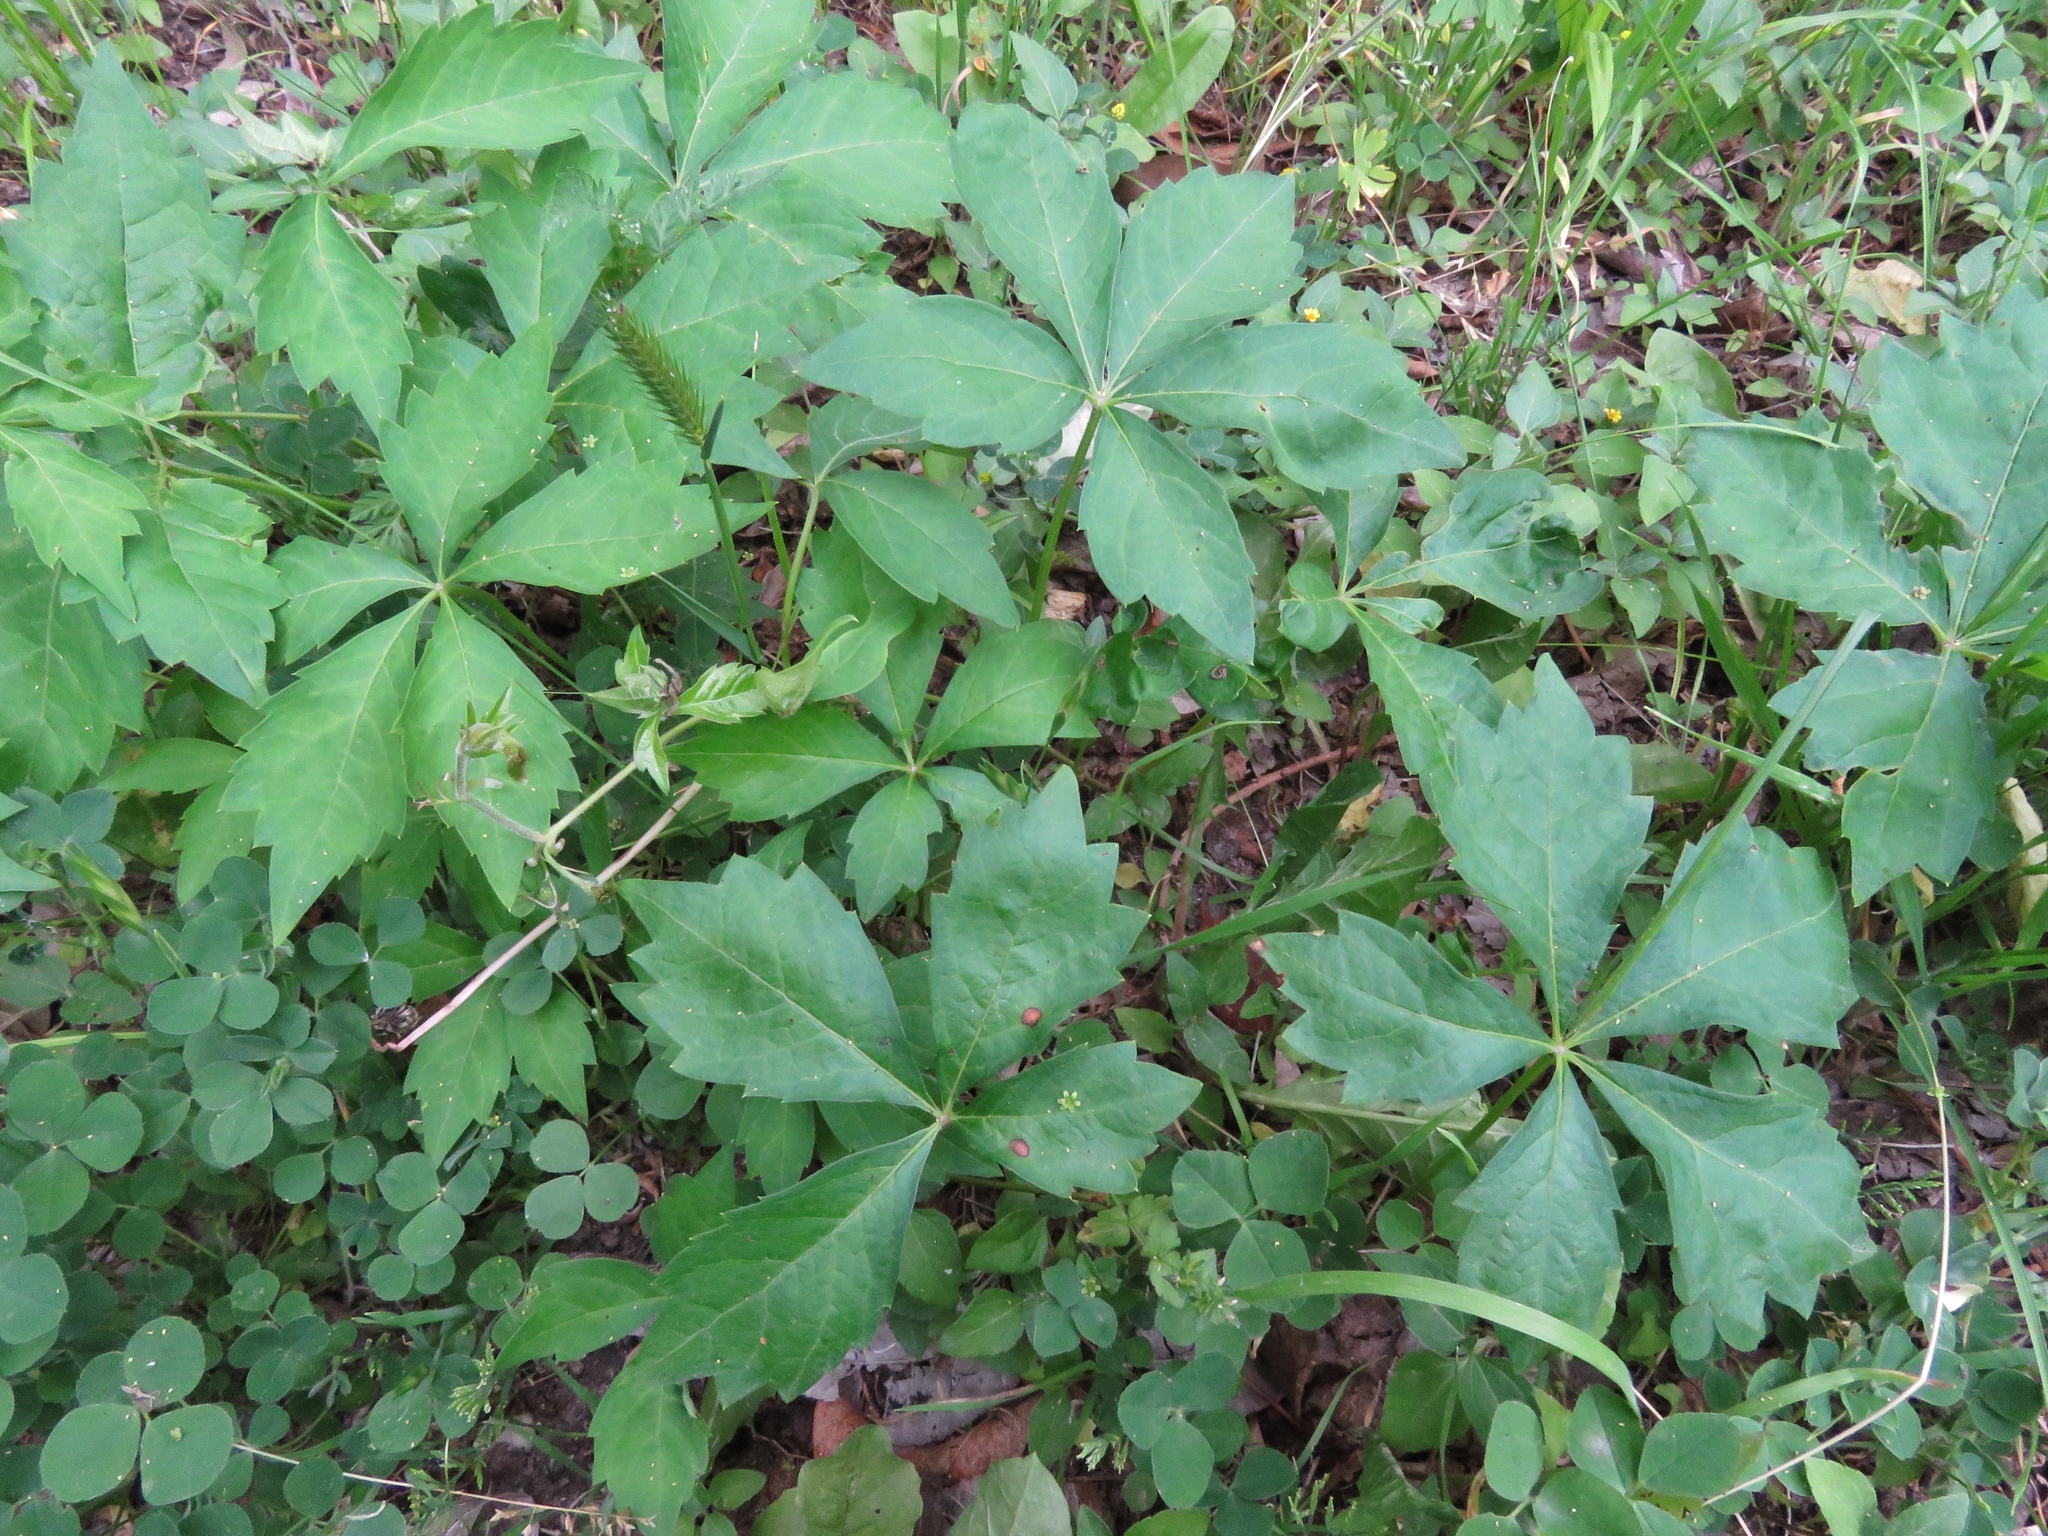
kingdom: Plantae
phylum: Tracheophyta
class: Magnoliopsida
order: Vitales
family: Vitaceae
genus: Parthenocissus
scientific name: Parthenocissus quinquefolia
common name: Virginia-creeper
